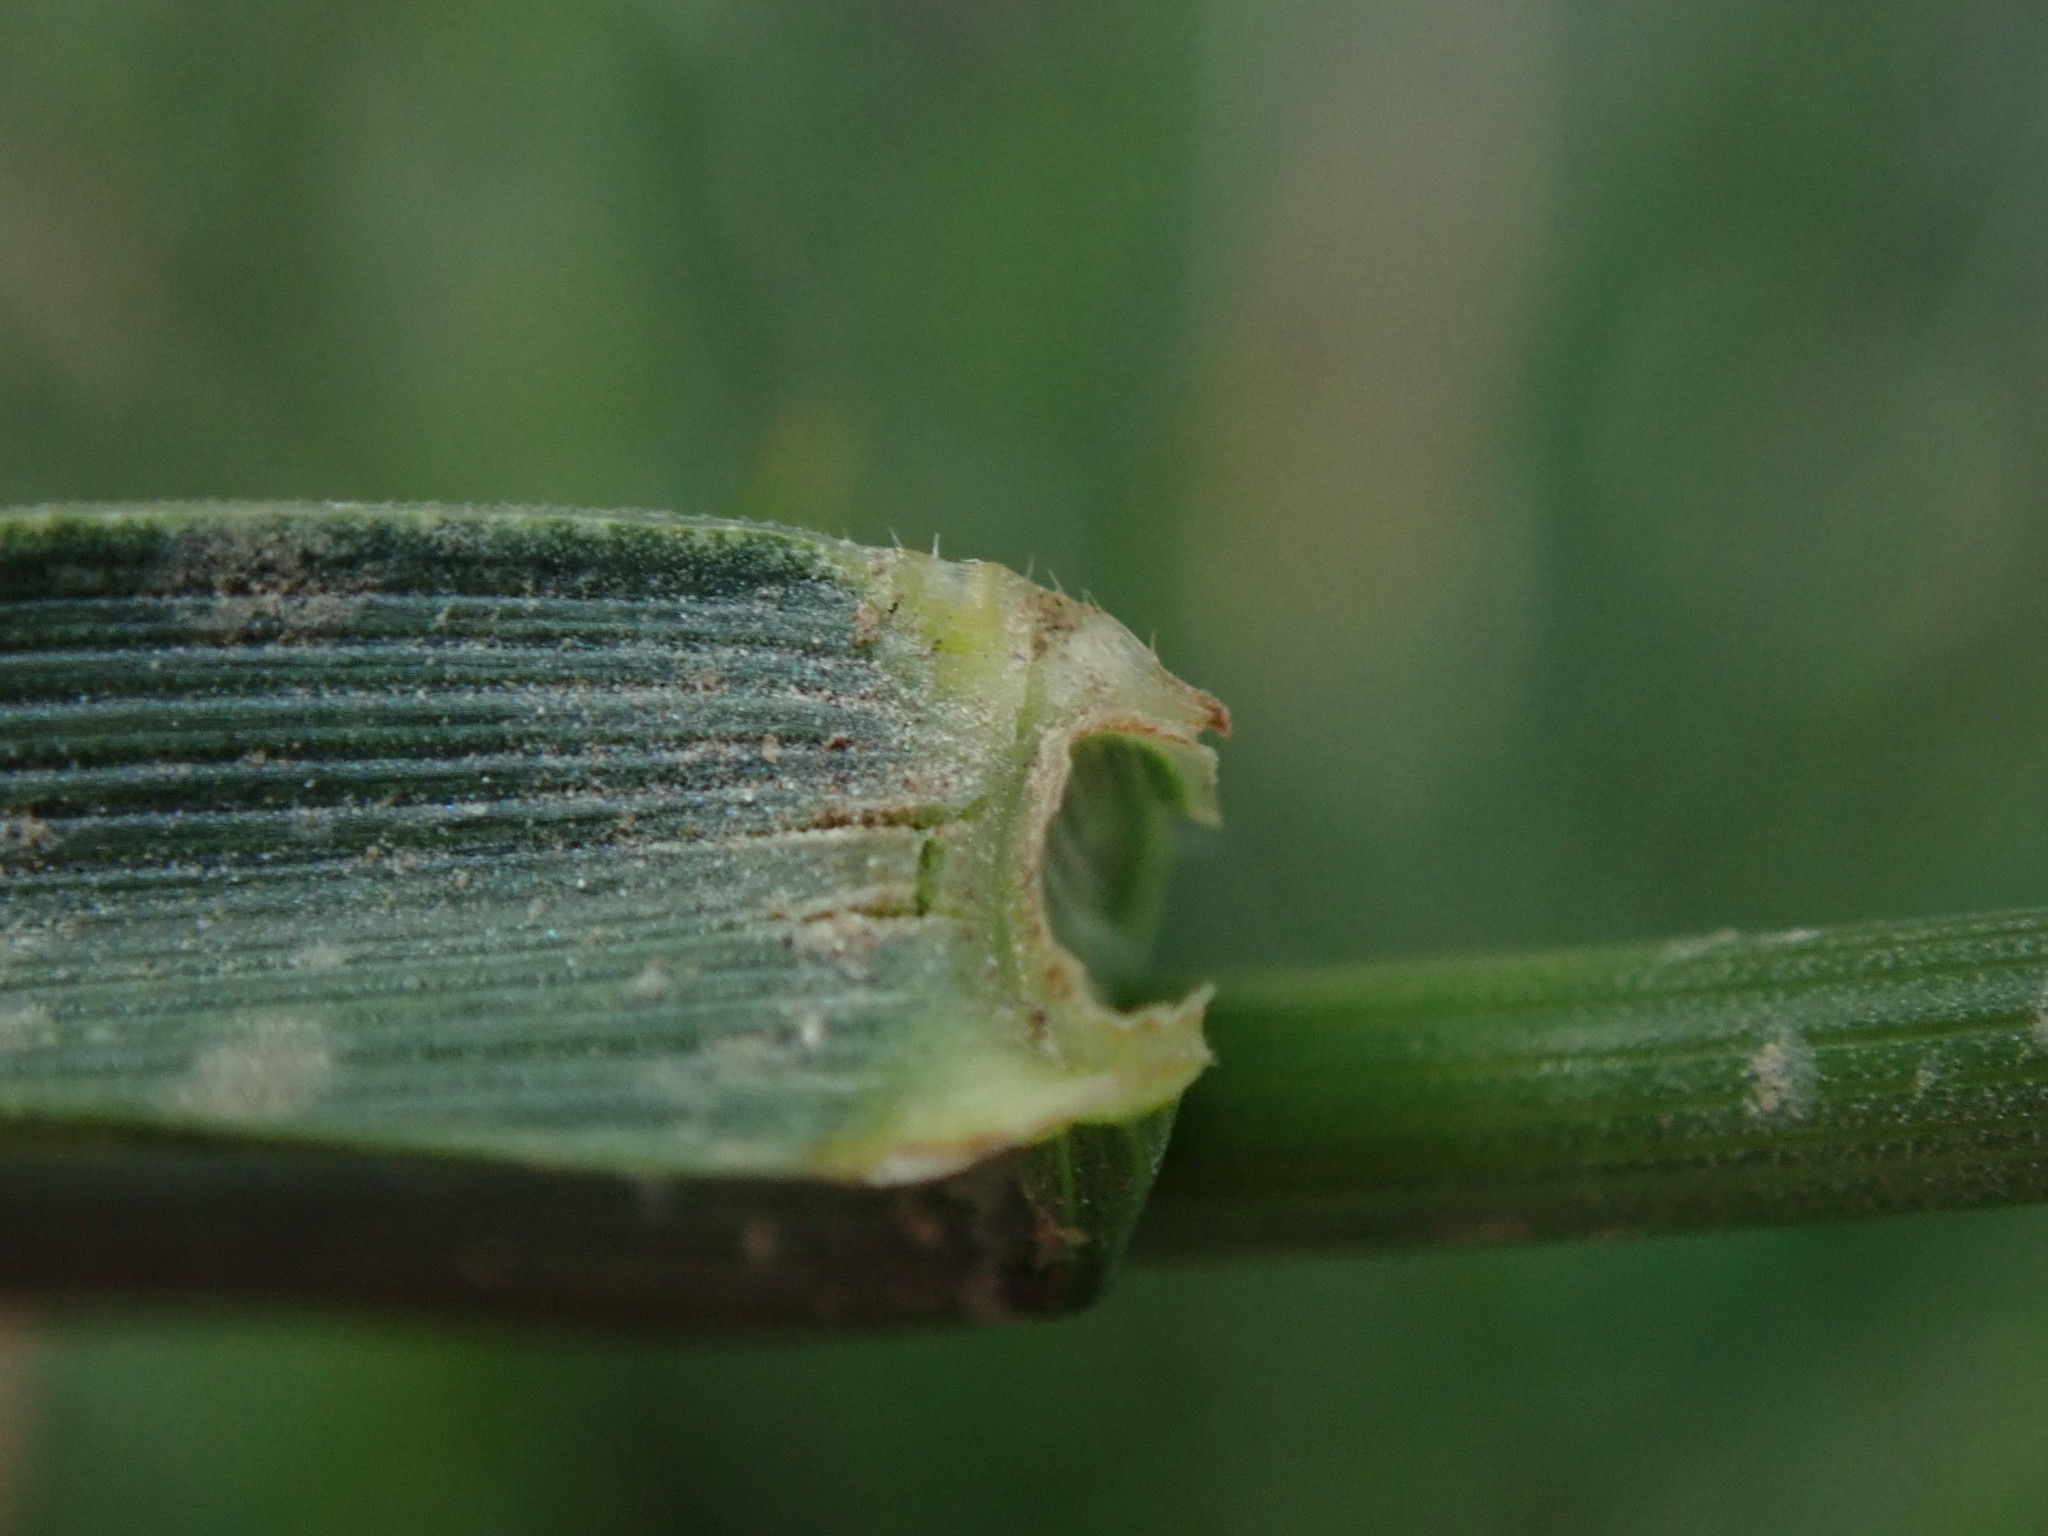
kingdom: Plantae
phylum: Tracheophyta
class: Liliopsida
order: Poales
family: Poaceae
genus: Lolium
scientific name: Lolium arundinaceum
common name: Reed fescue
